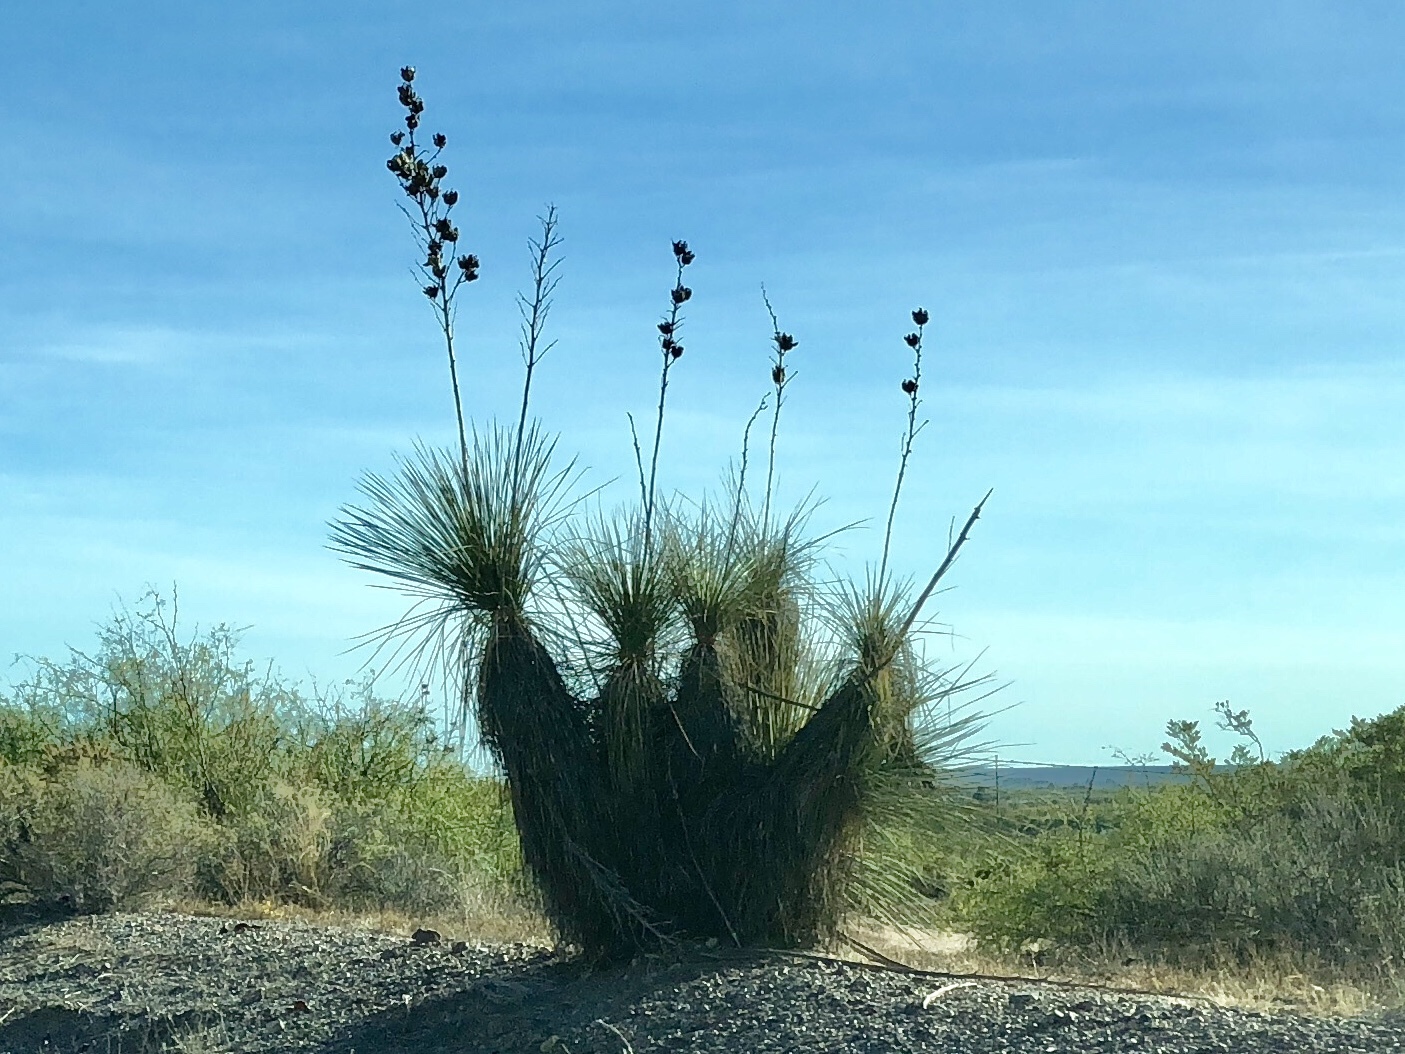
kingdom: Plantae
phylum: Tracheophyta
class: Liliopsida
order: Asparagales
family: Asparagaceae
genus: Yucca
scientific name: Yucca elata
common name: Palmella
